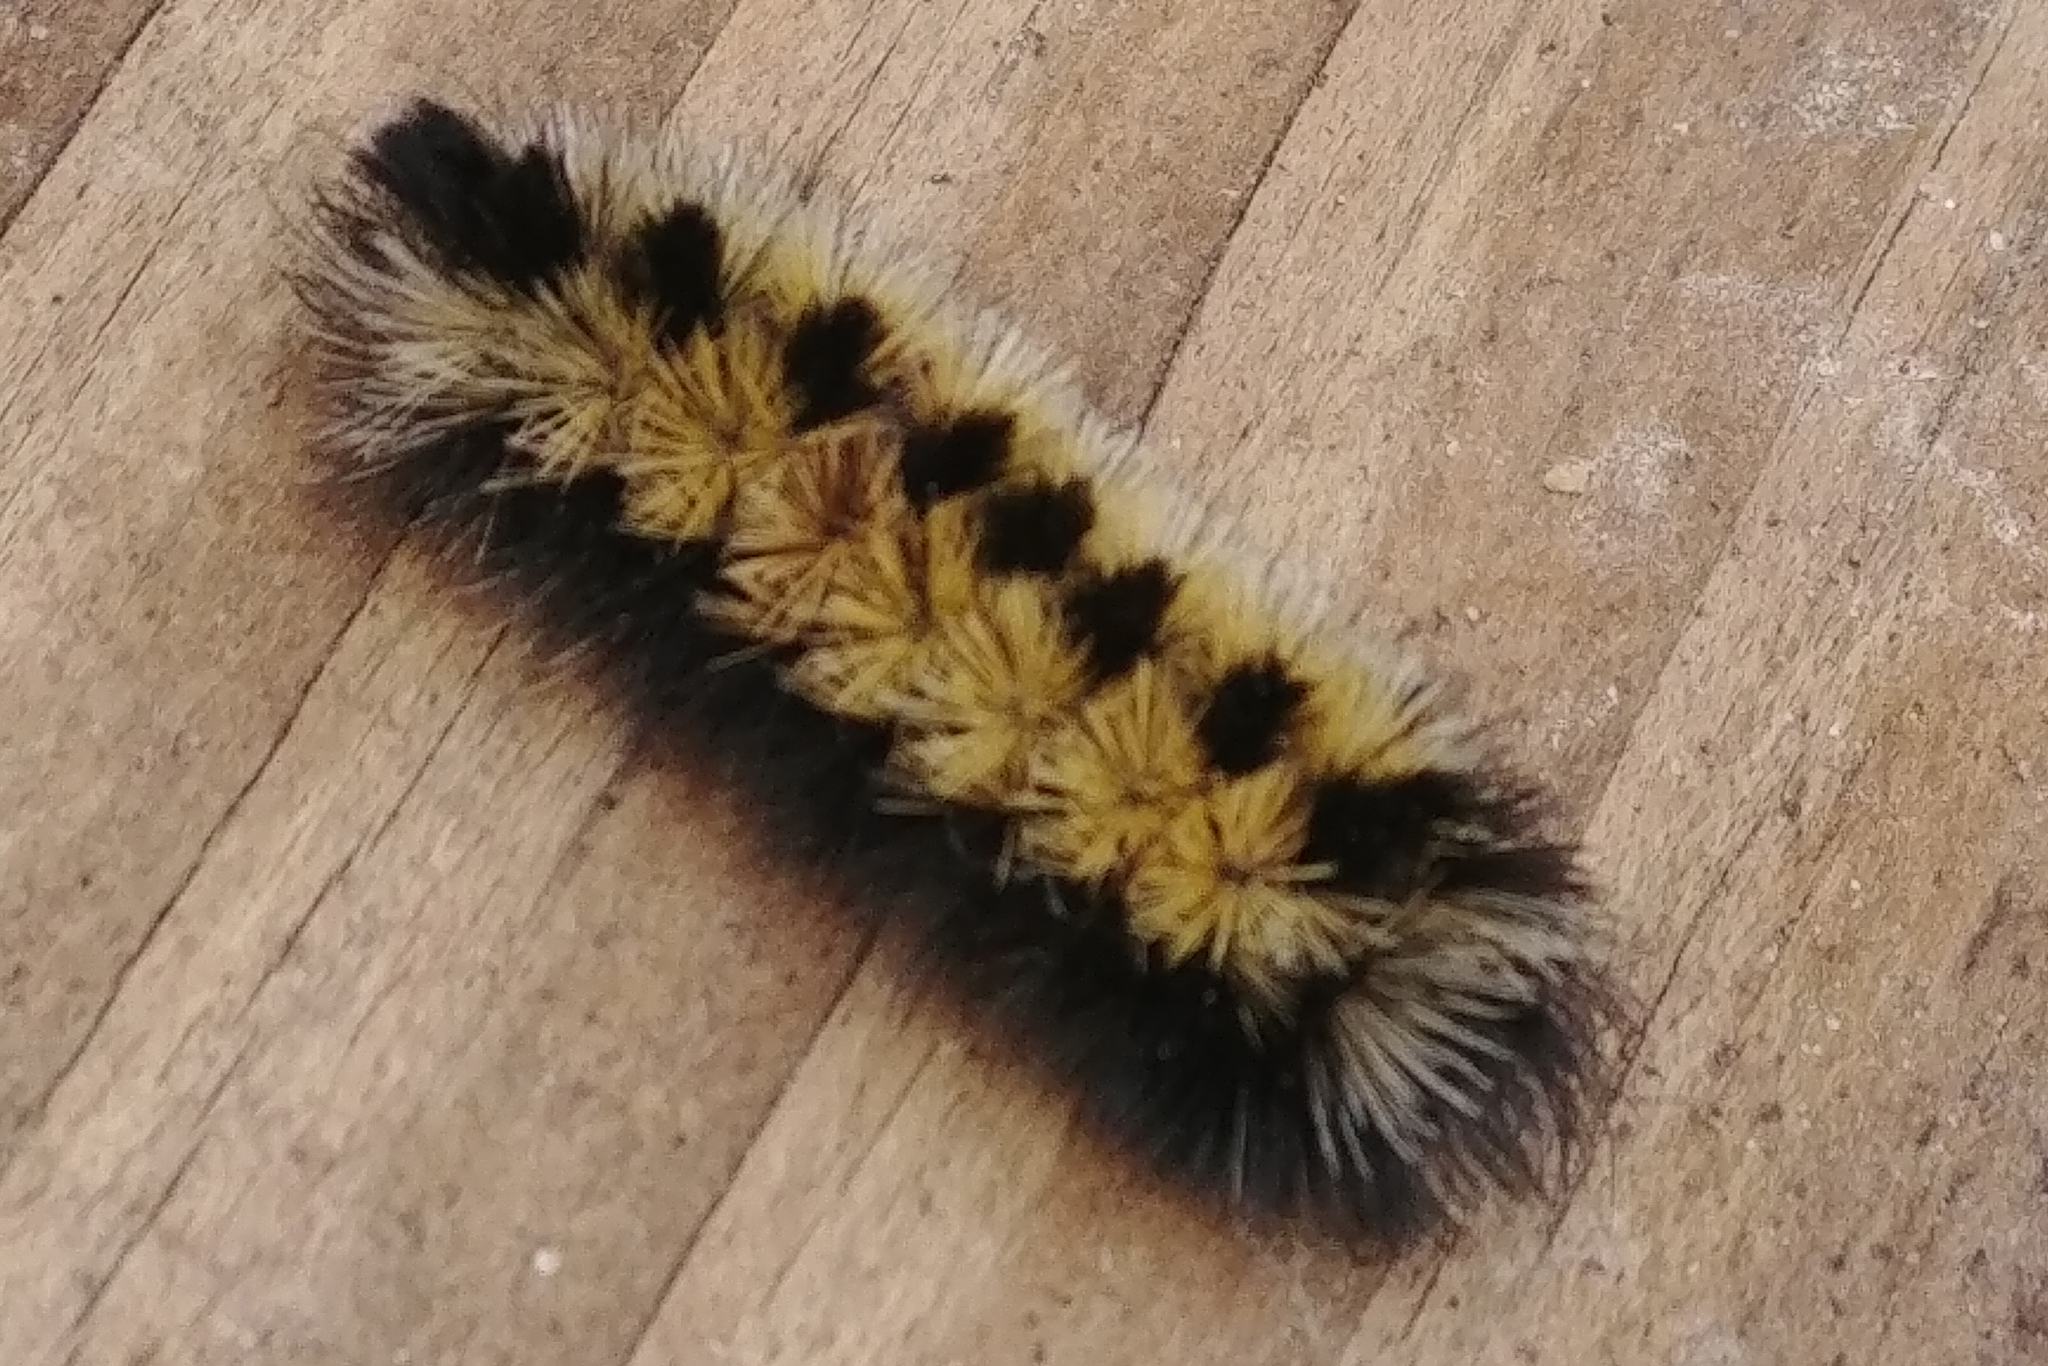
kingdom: Animalia
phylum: Arthropoda
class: Insecta
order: Lepidoptera
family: Erebidae
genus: Ctenucha
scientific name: Ctenucha virginica
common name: Virginia ctenucha moth
